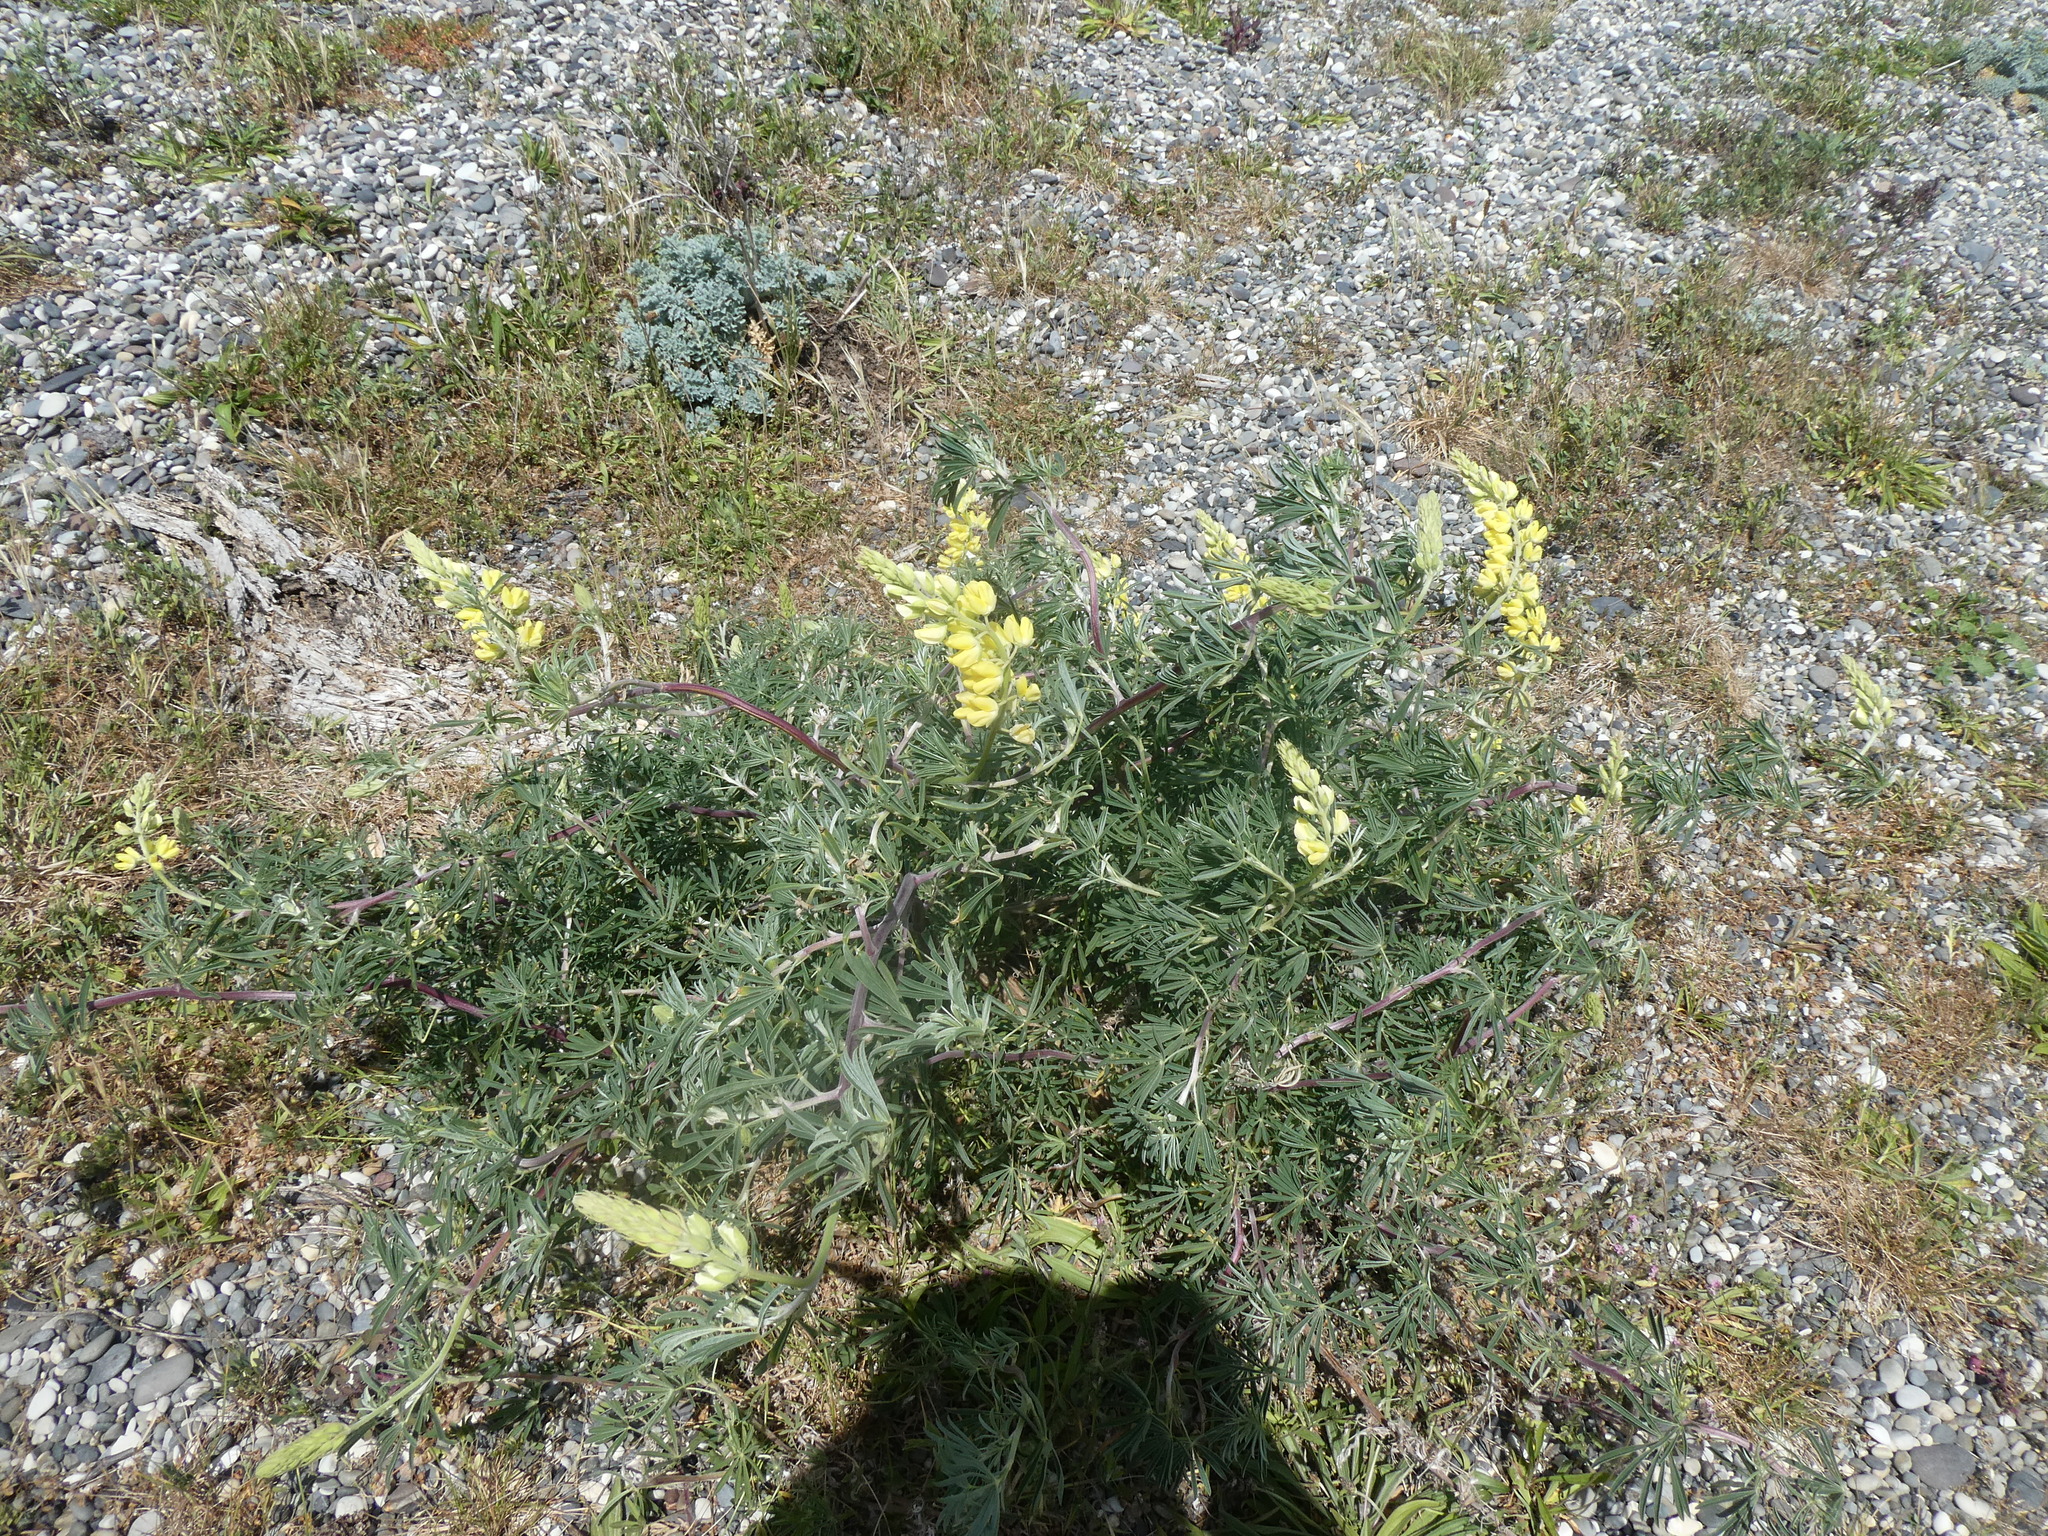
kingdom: Plantae
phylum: Tracheophyta
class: Magnoliopsida
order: Fabales
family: Fabaceae
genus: Lupinus
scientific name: Lupinus arboreus
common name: Yellow bush lupine
